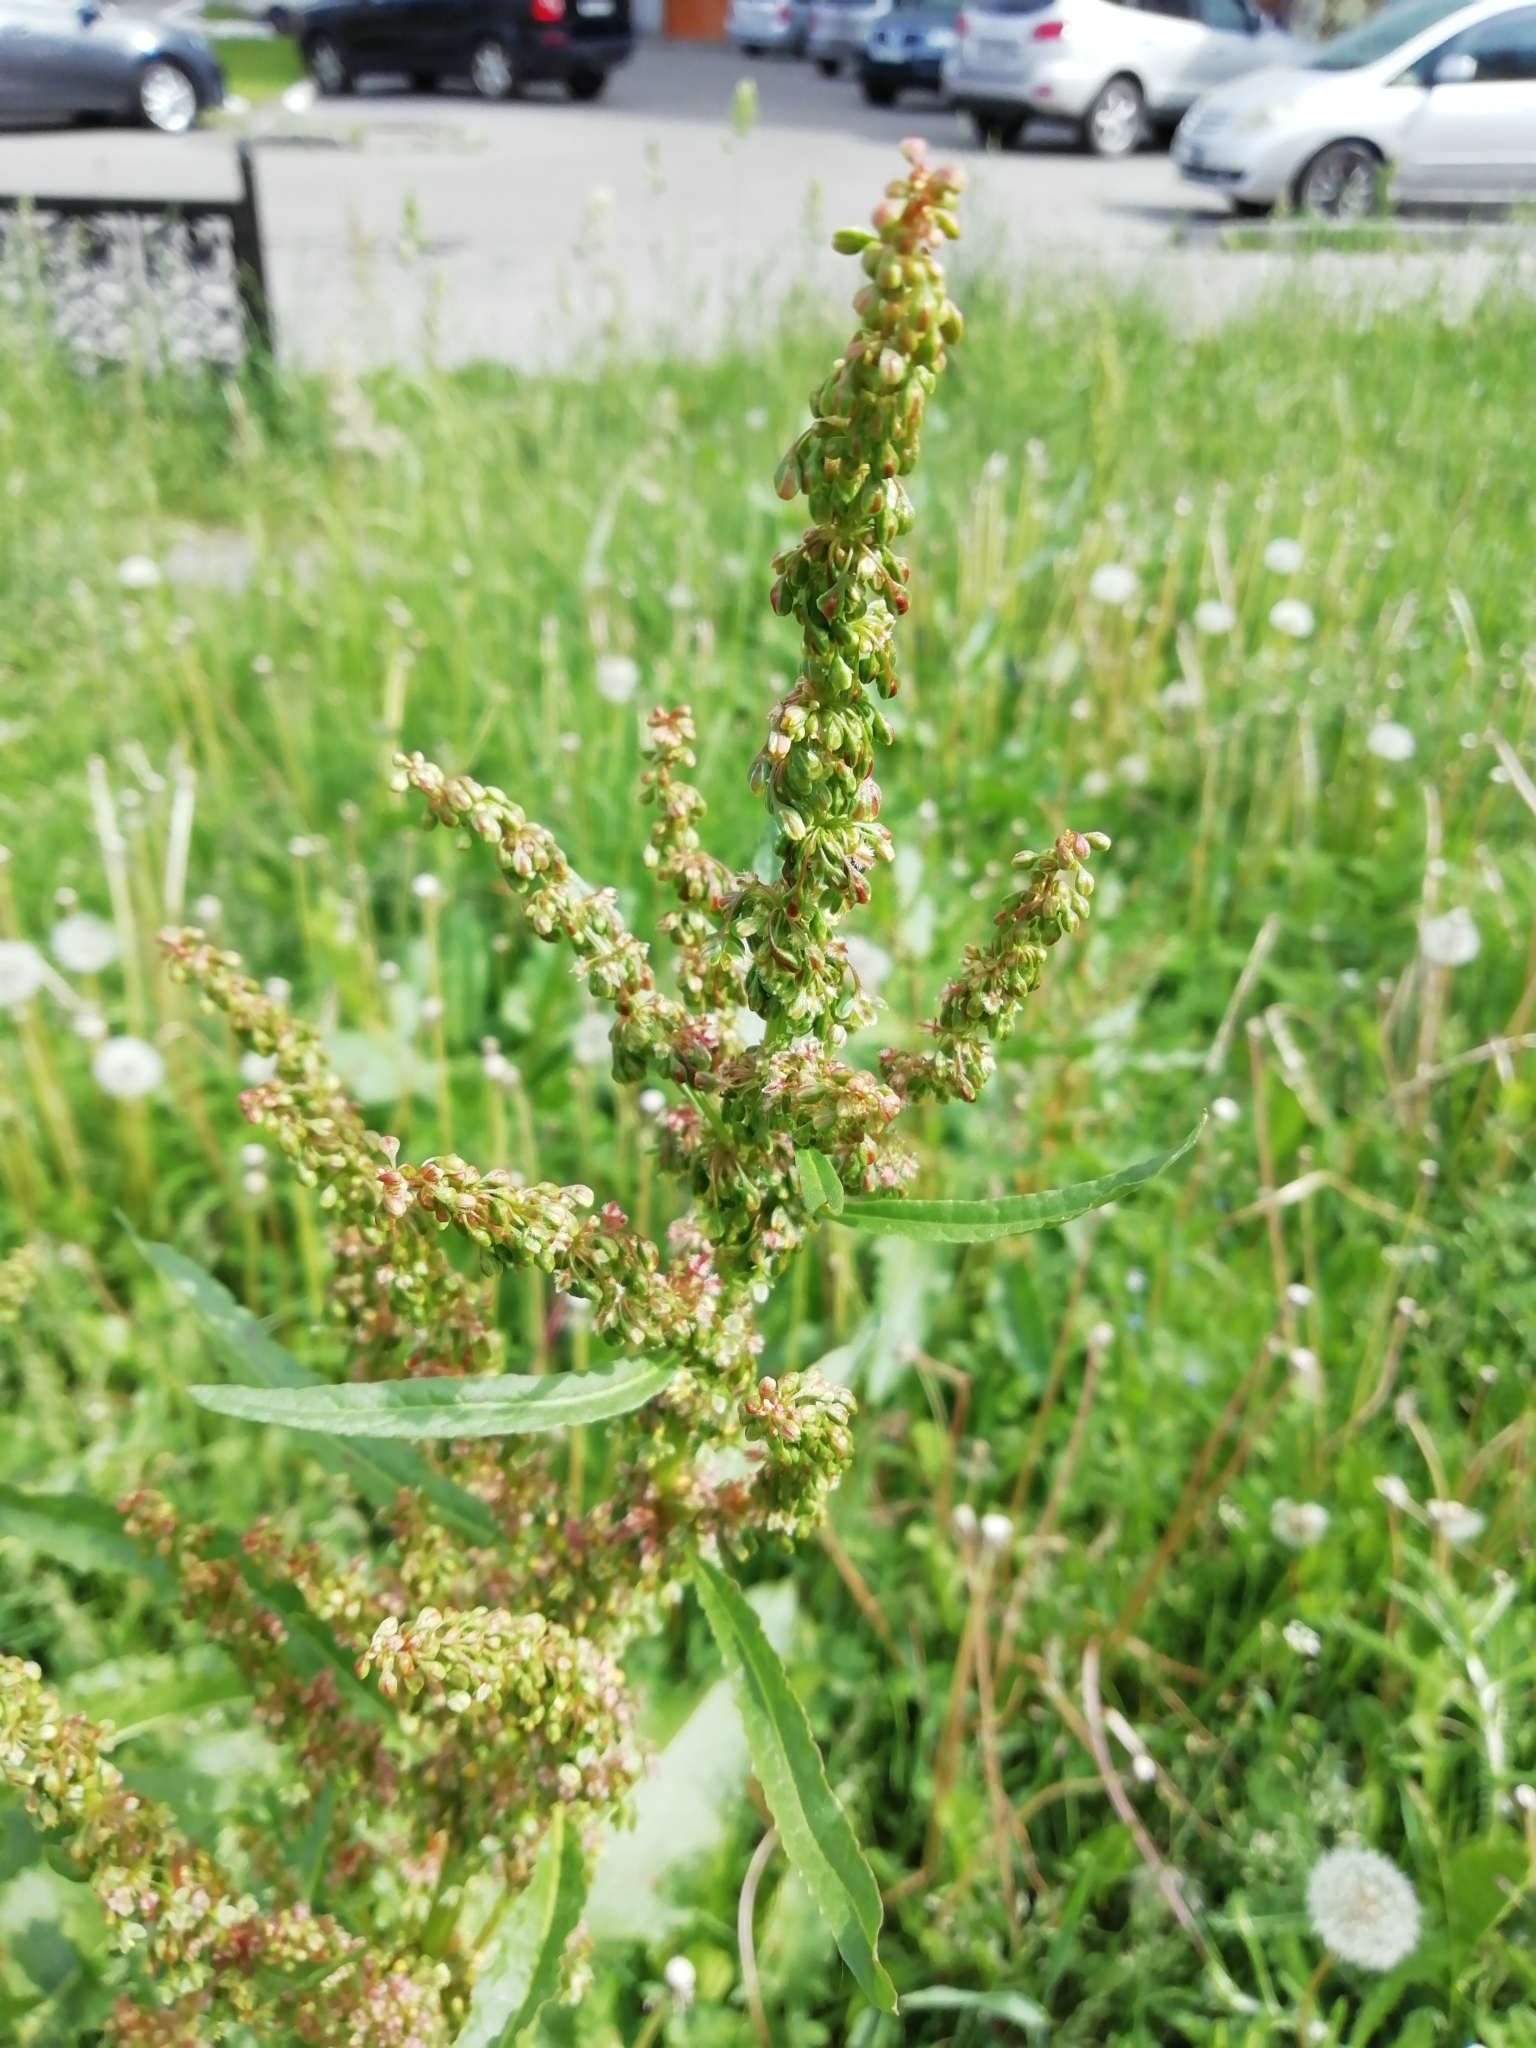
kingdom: Plantae
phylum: Tracheophyta
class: Magnoliopsida
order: Caryophyllales
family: Polygonaceae
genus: Rumex
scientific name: Rumex pseudonatronatus
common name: Field dock
